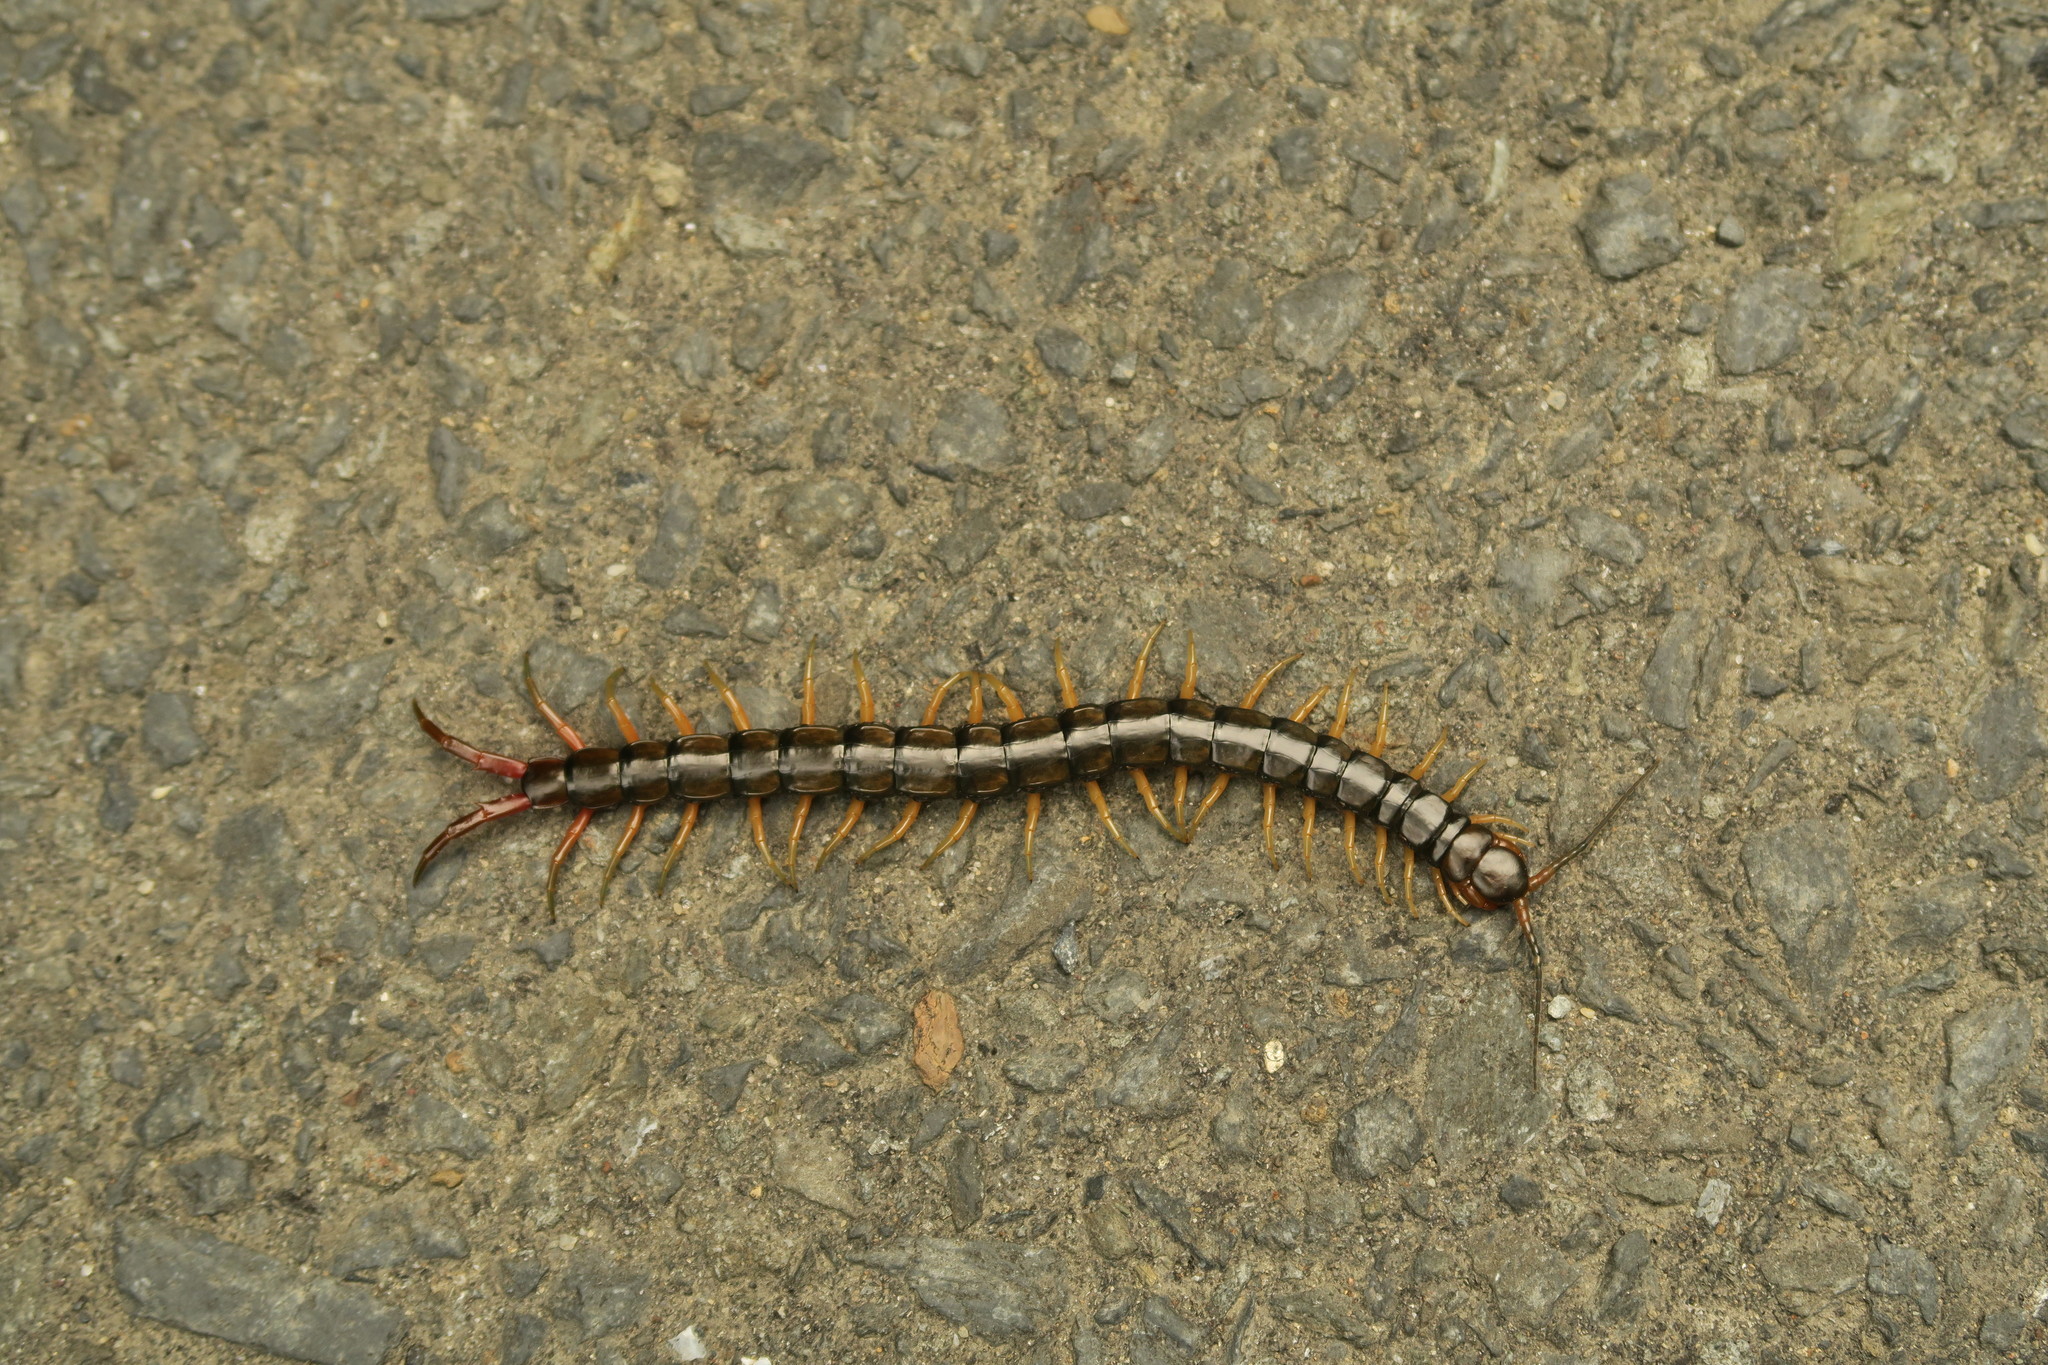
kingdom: Animalia
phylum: Arthropoda
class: Chilopoda
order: Scolopendromorpha
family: Scolopendridae
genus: Scolopendra
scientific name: Scolopendra japonica
